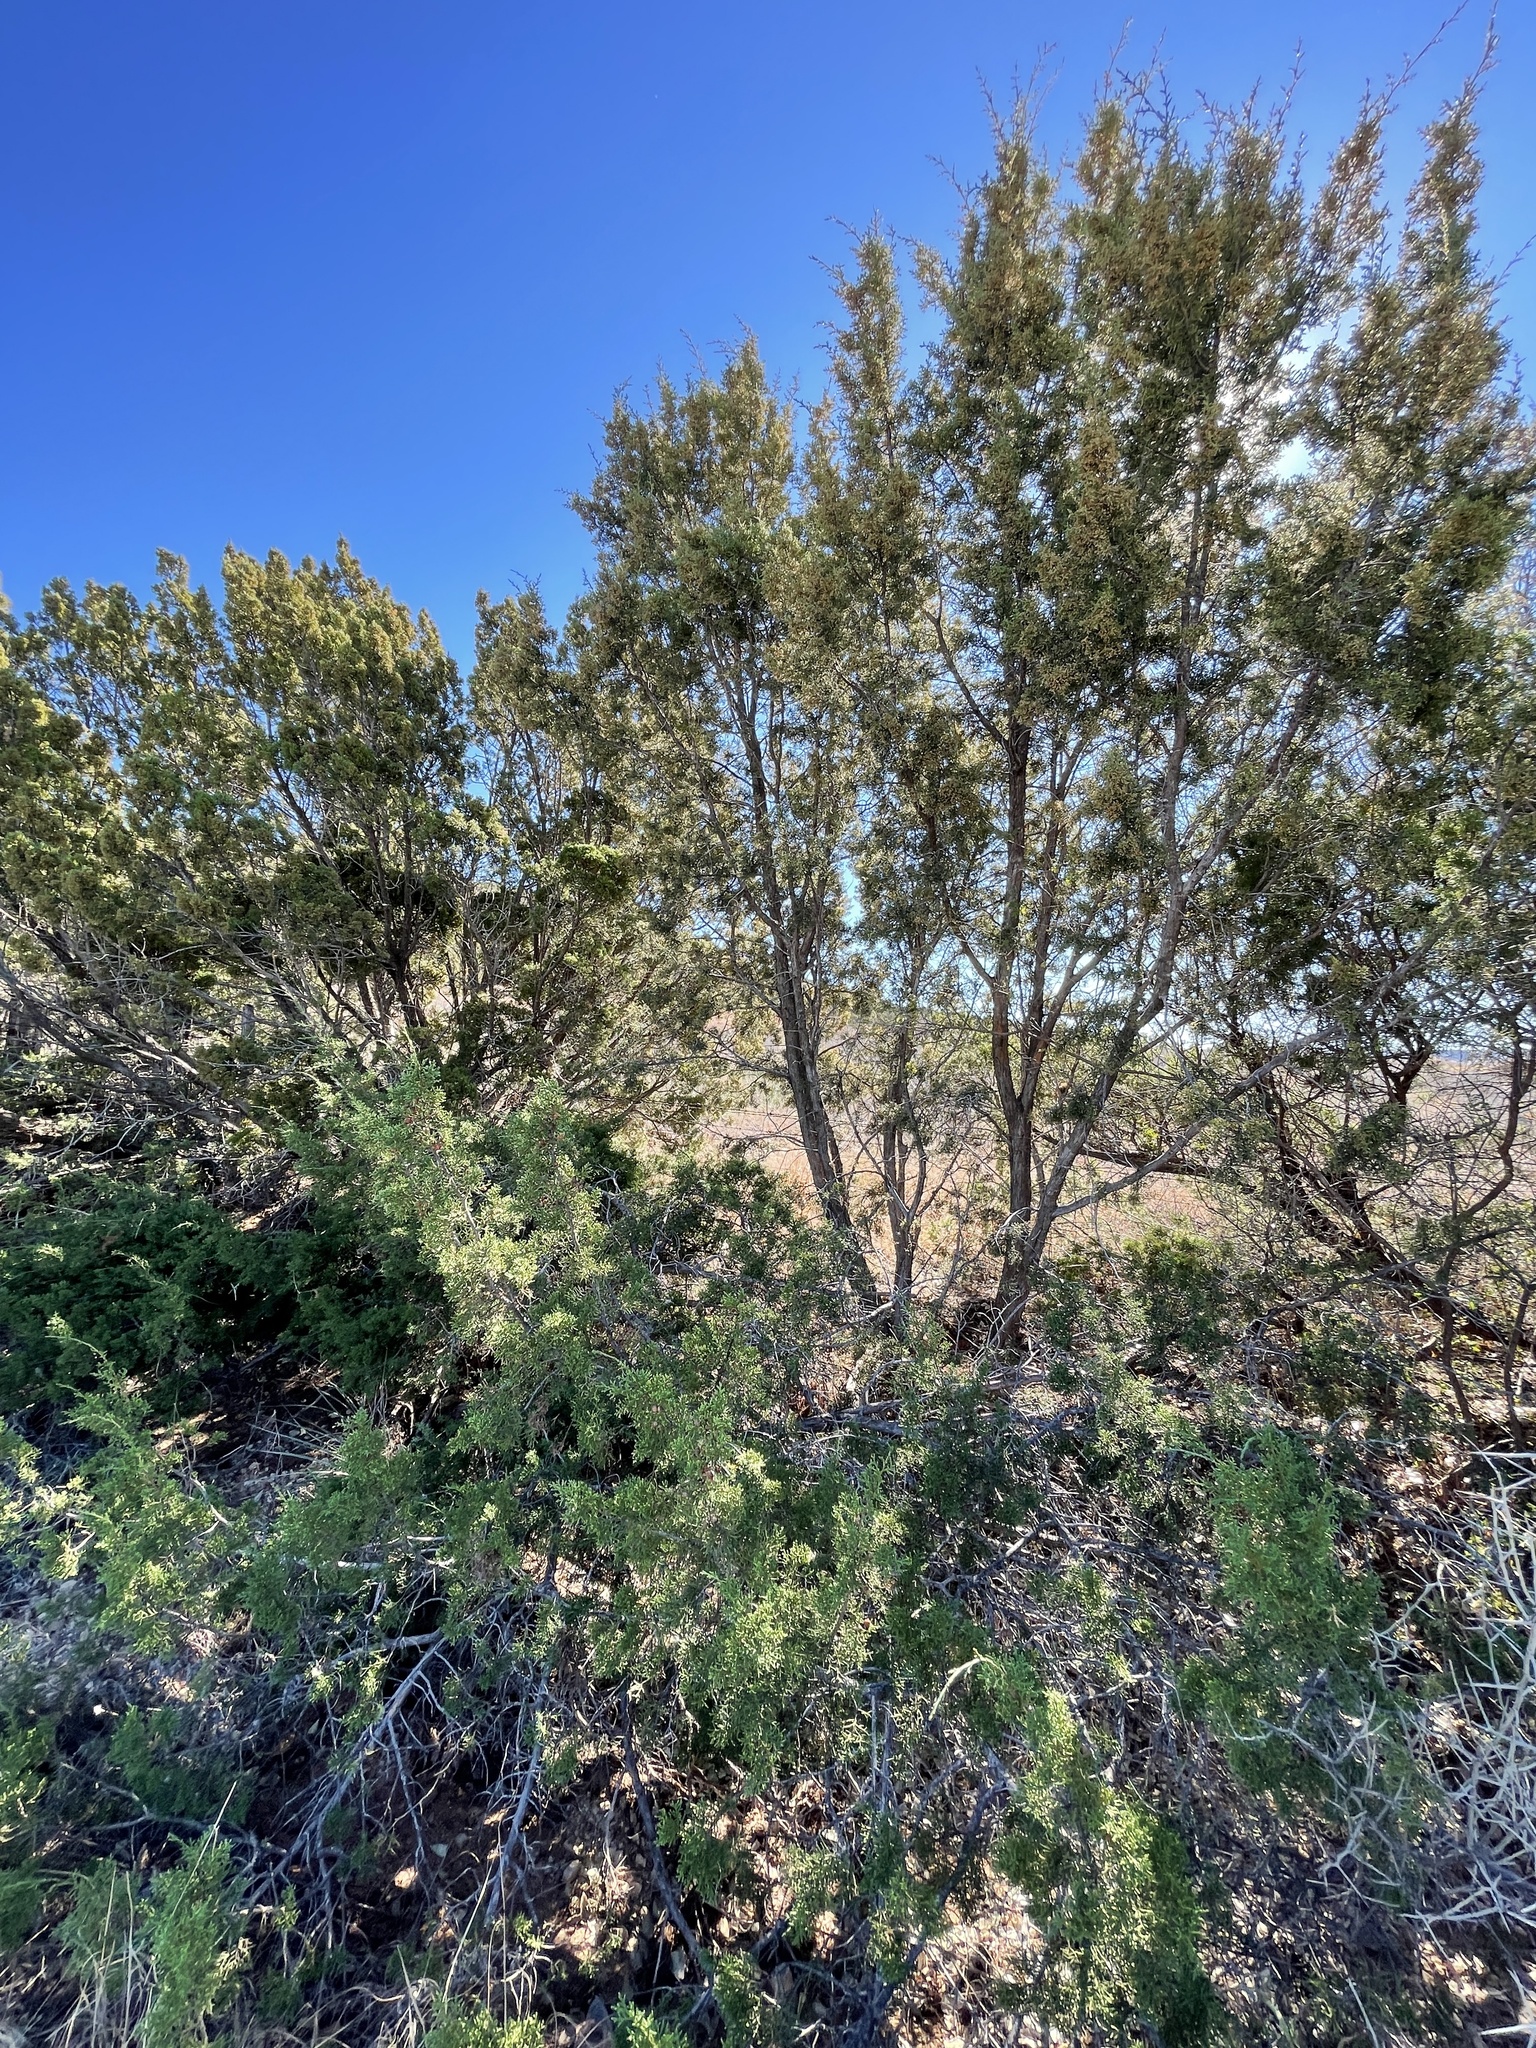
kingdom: Plantae
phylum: Tracheophyta
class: Pinopsida
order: Pinales
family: Cupressaceae
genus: Juniperus
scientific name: Juniperus pinchotii
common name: Pinchot juniper
